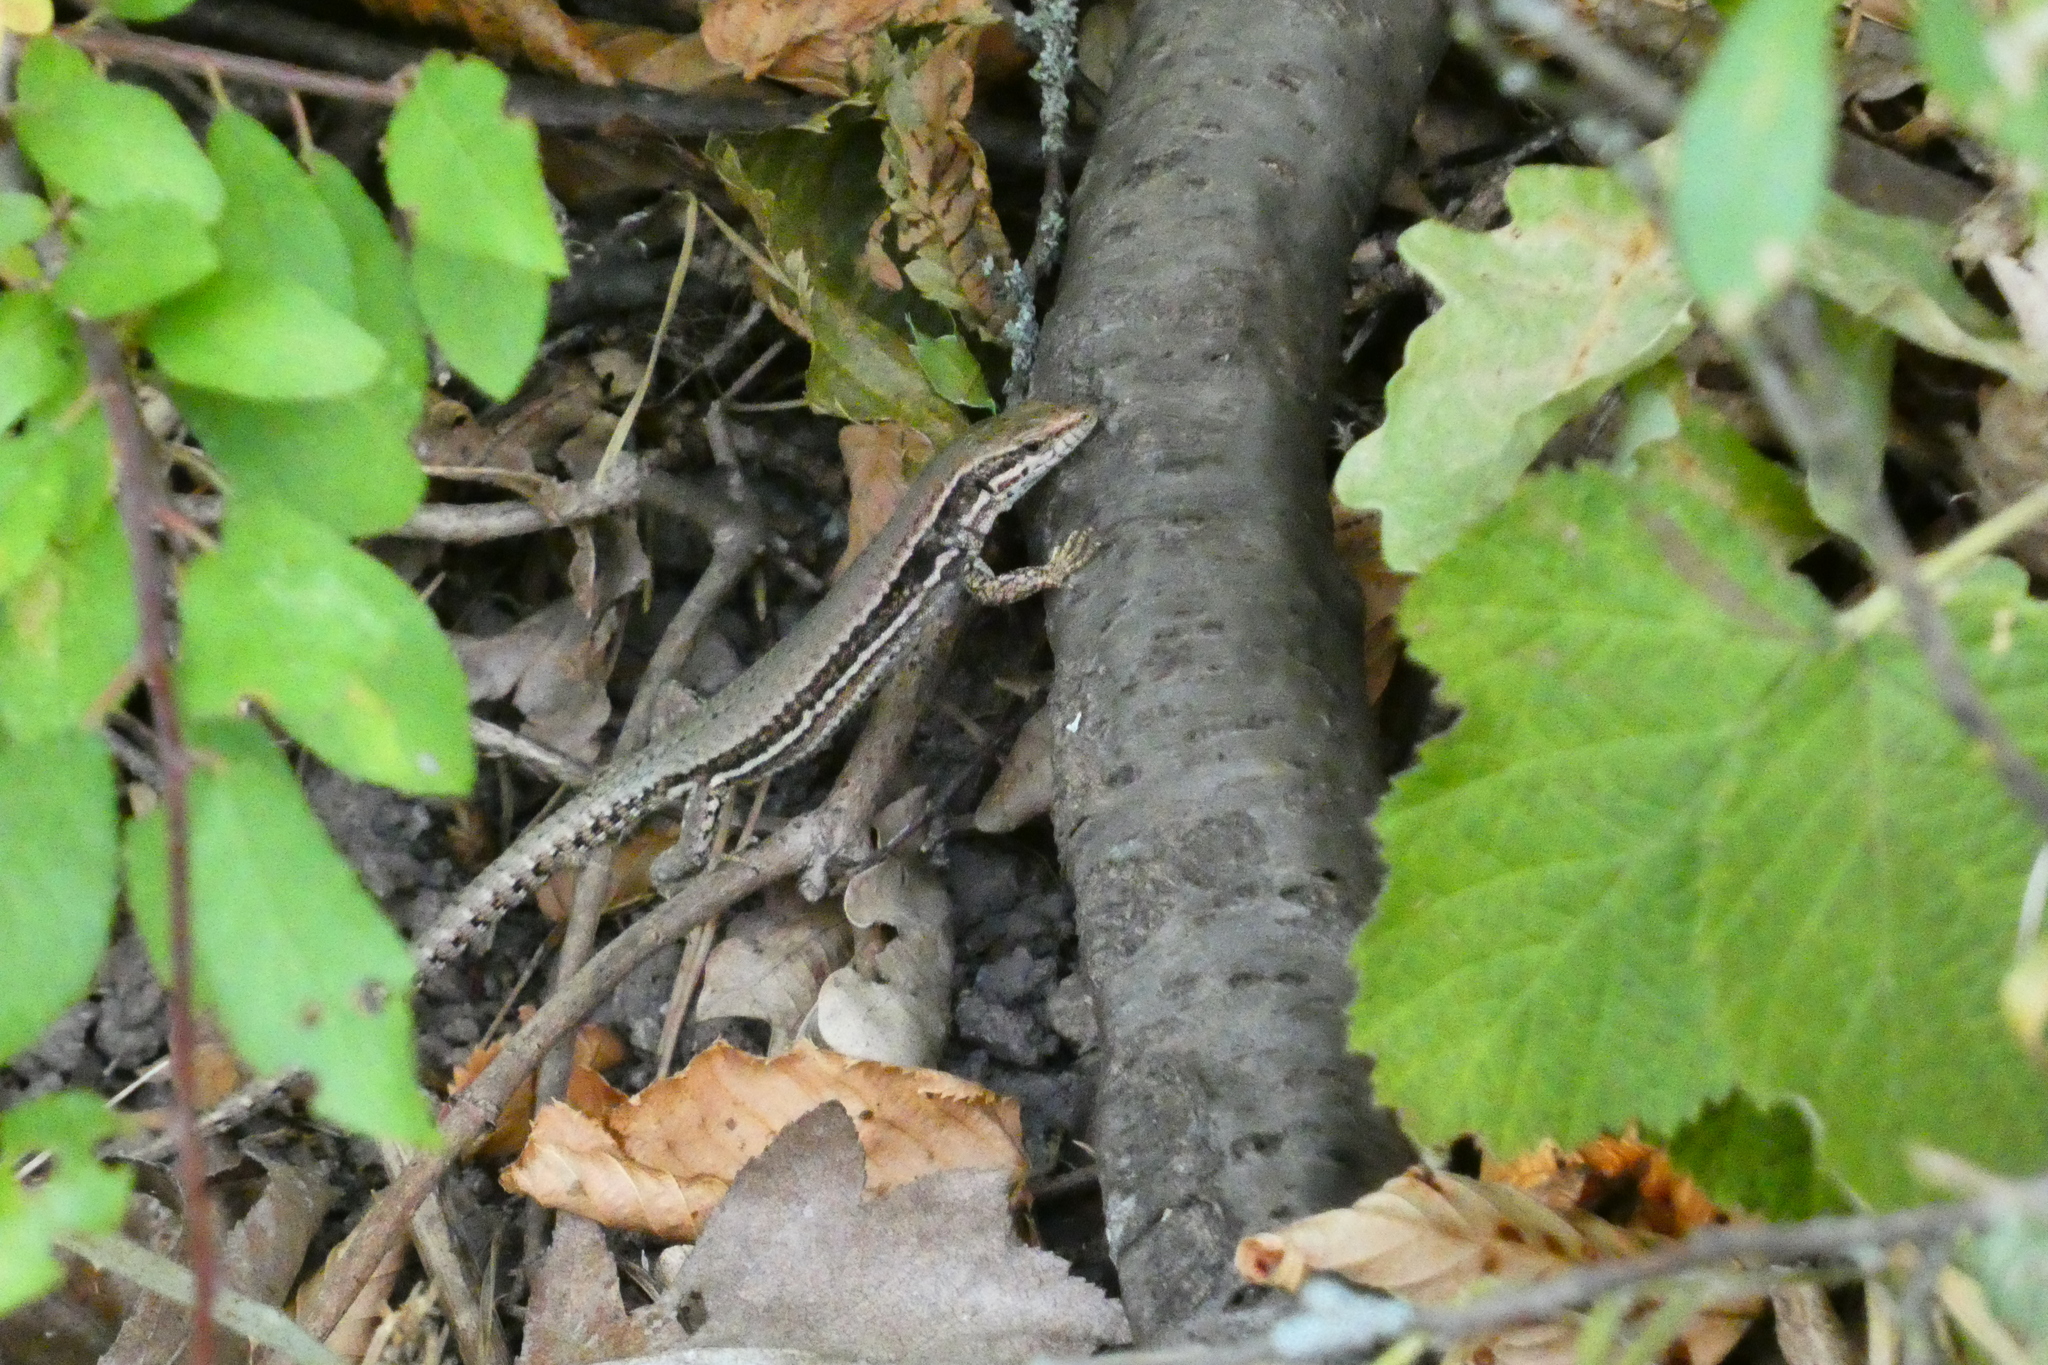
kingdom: Animalia
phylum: Chordata
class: Squamata
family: Lacertidae
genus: Podarcis
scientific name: Podarcis muralis
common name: Common wall lizard
